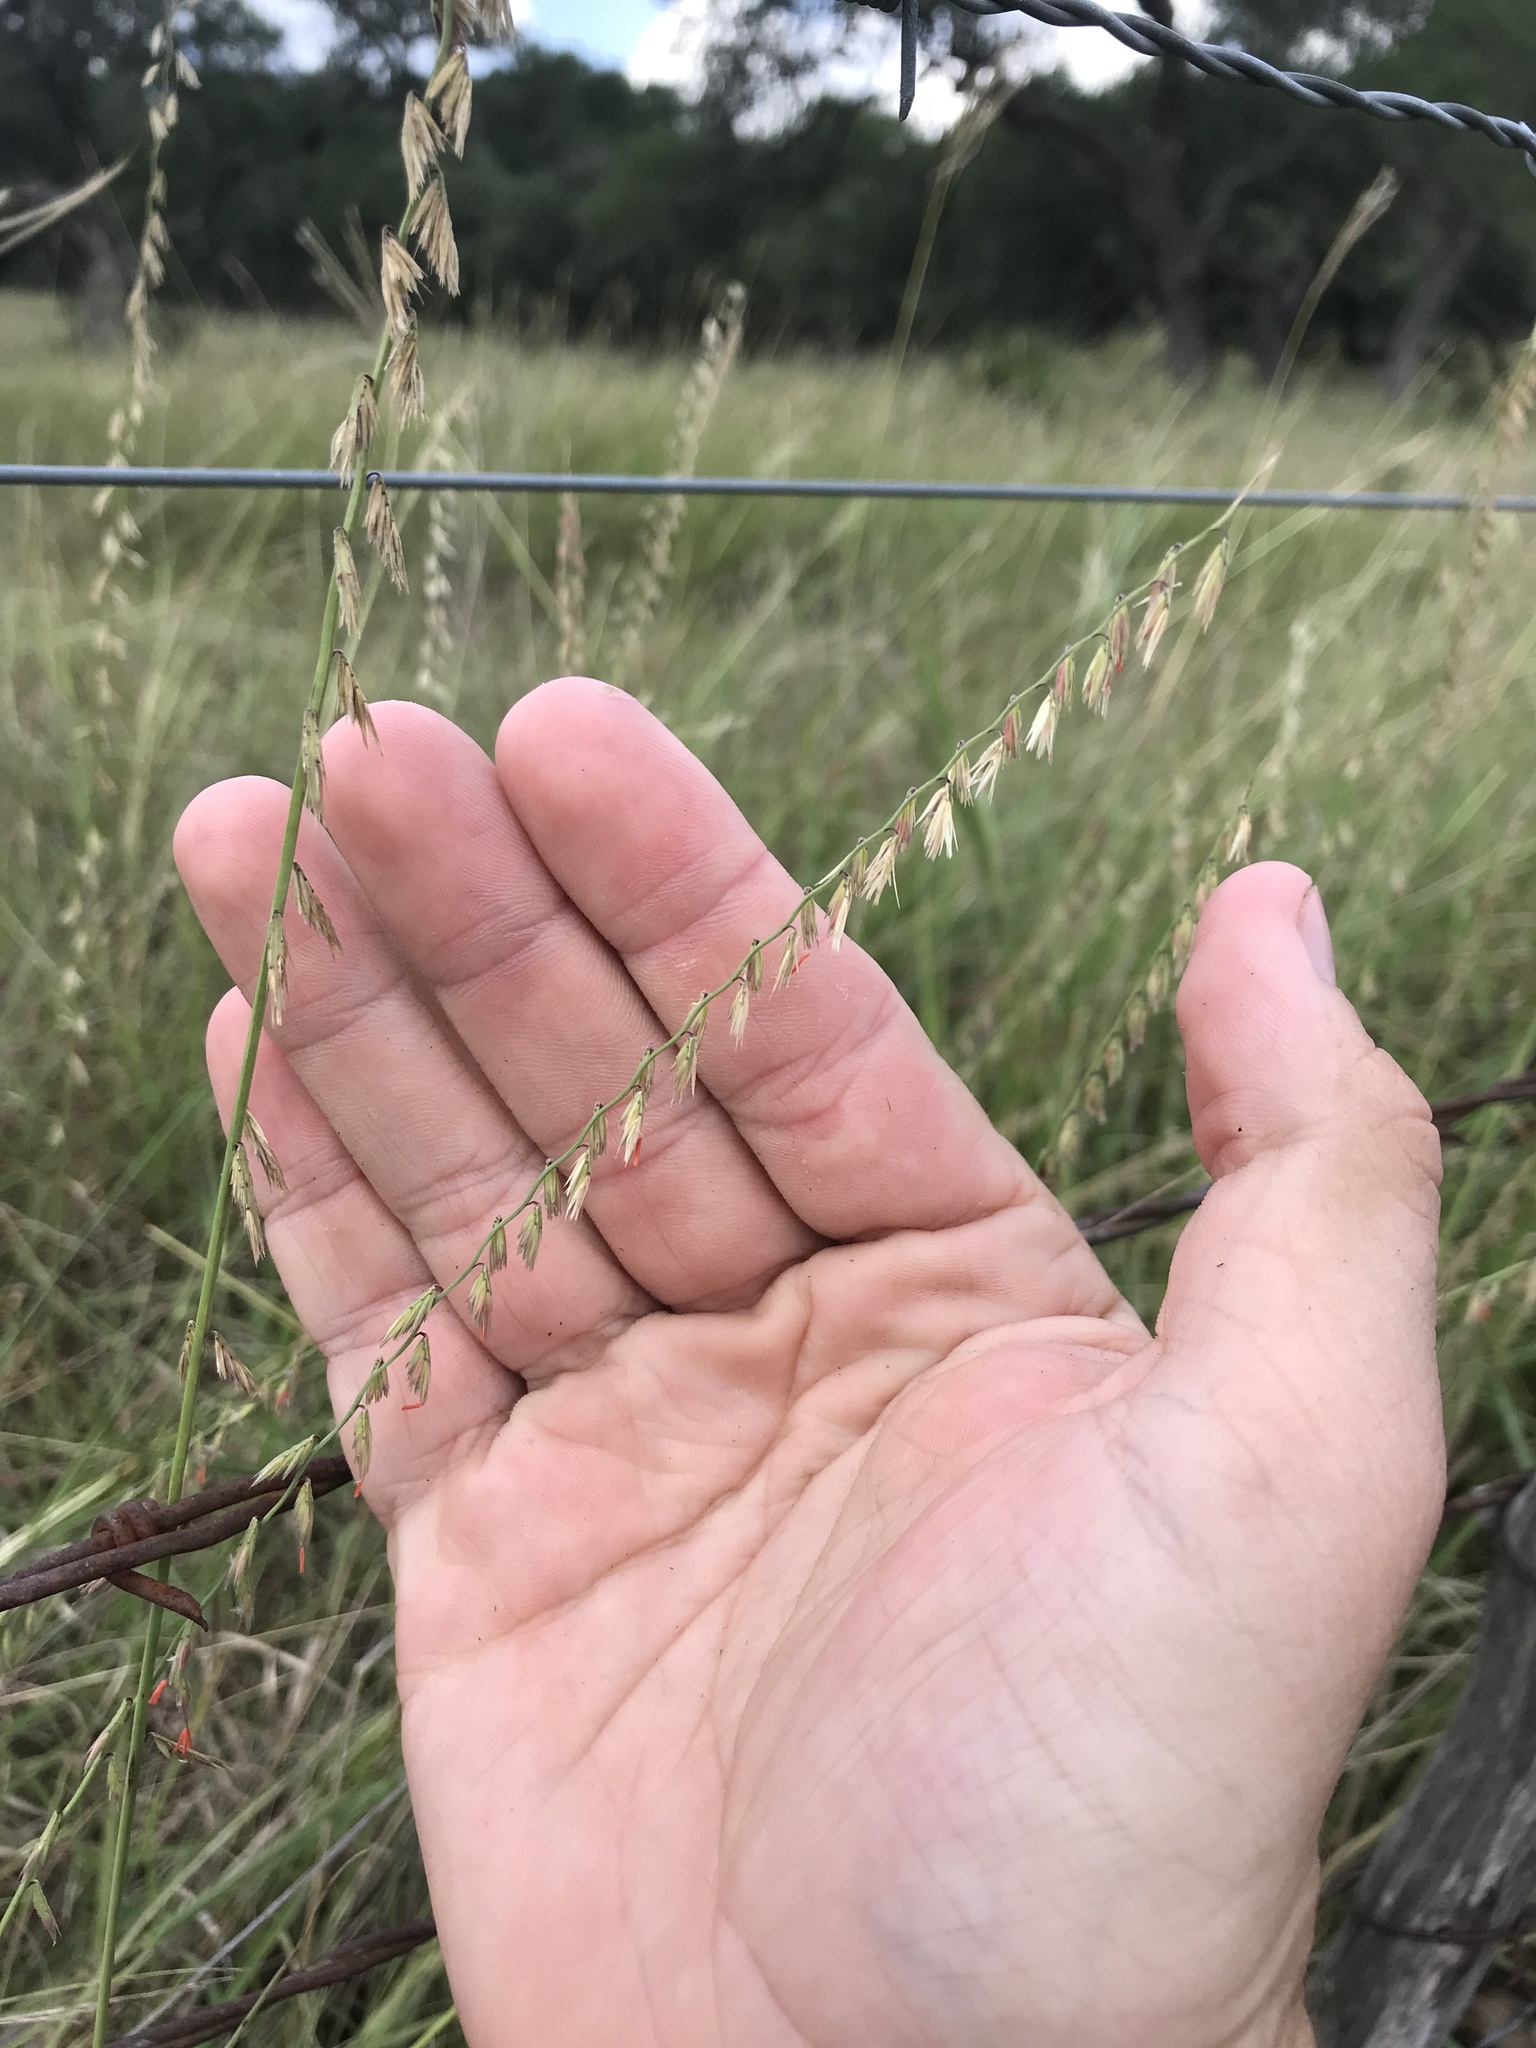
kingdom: Plantae
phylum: Tracheophyta
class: Liliopsida
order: Poales
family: Poaceae
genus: Bouteloua
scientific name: Bouteloua curtipendula
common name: Side-oats grama
